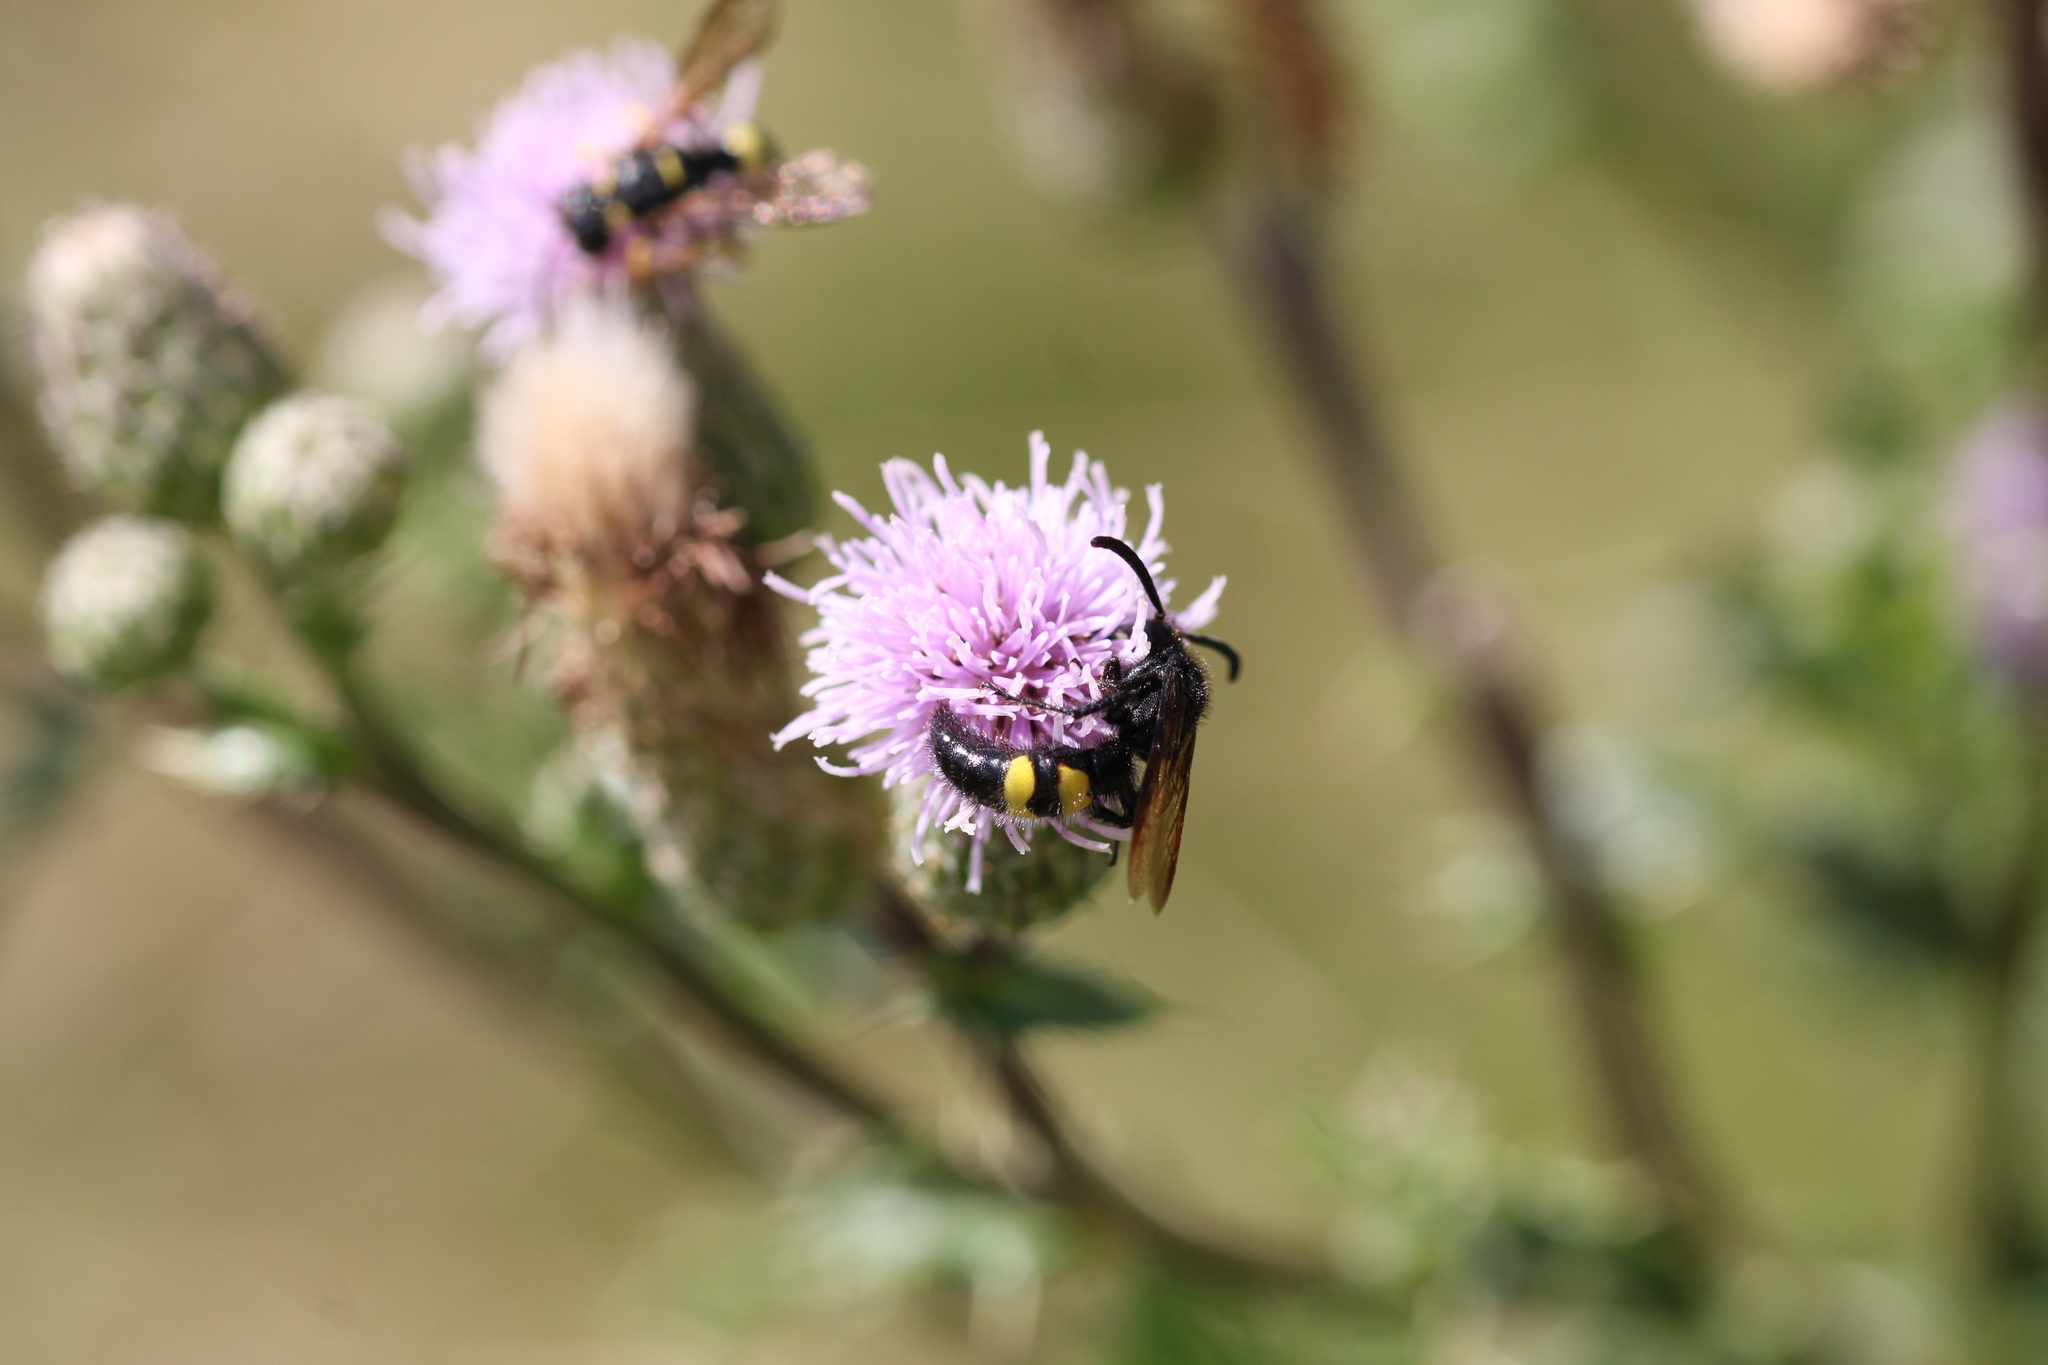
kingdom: Animalia
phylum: Arthropoda
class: Insecta
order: Hymenoptera
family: Scoliidae
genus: Scolia
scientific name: Scolia hirta
